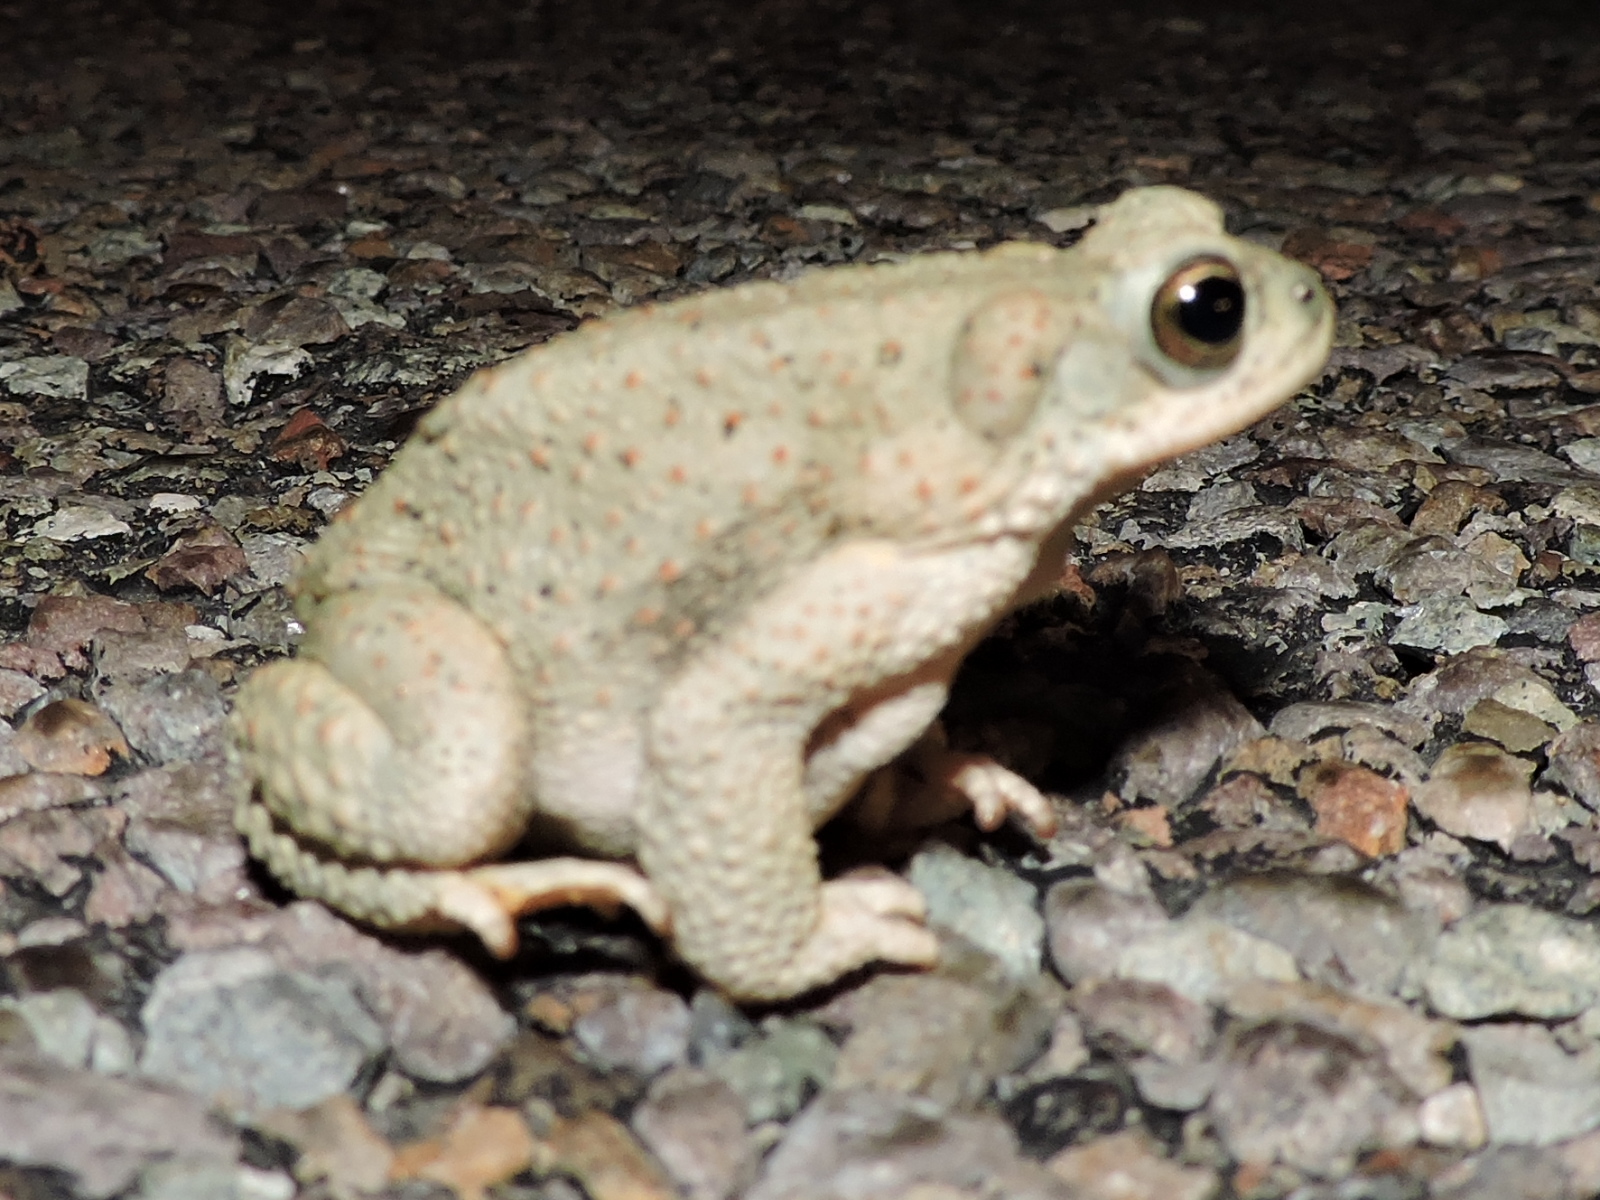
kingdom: Animalia
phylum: Chordata
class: Amphibia
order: Anura
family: Bufonidae
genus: Anaxyrus
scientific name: Anaxyrus punctatus
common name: Red-spotted toad
